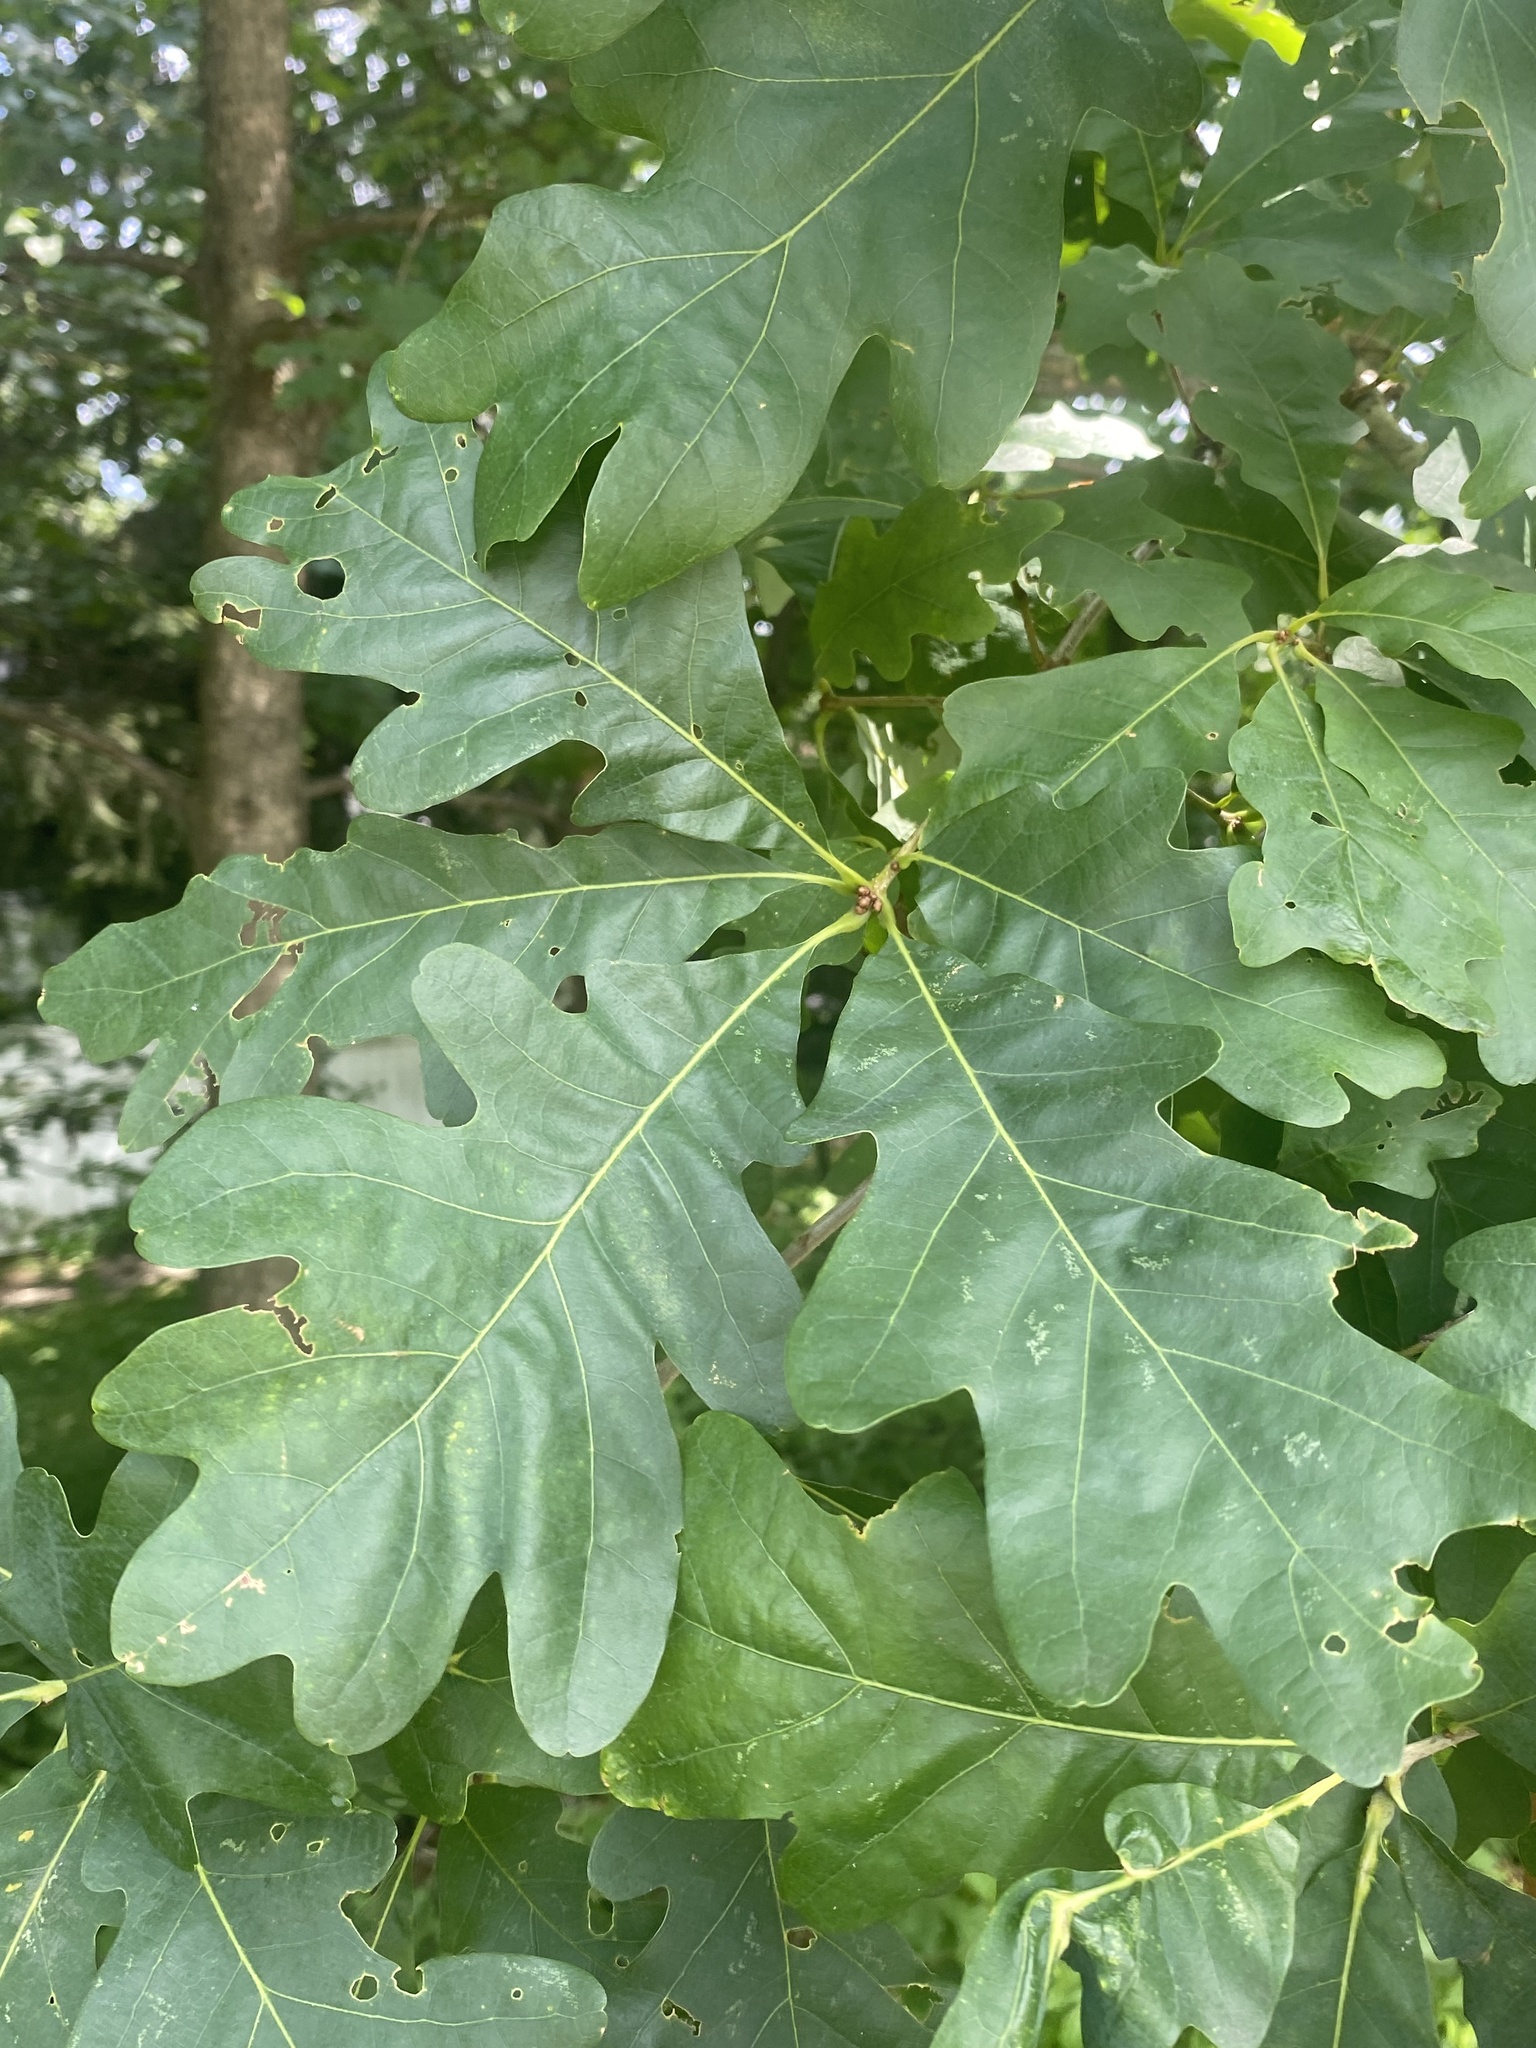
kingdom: Plantae
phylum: Tracheophyta
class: Magnoliopsida
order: Fagales
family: Fagaceae
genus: Quercus
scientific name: Quercus alba
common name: White oak
